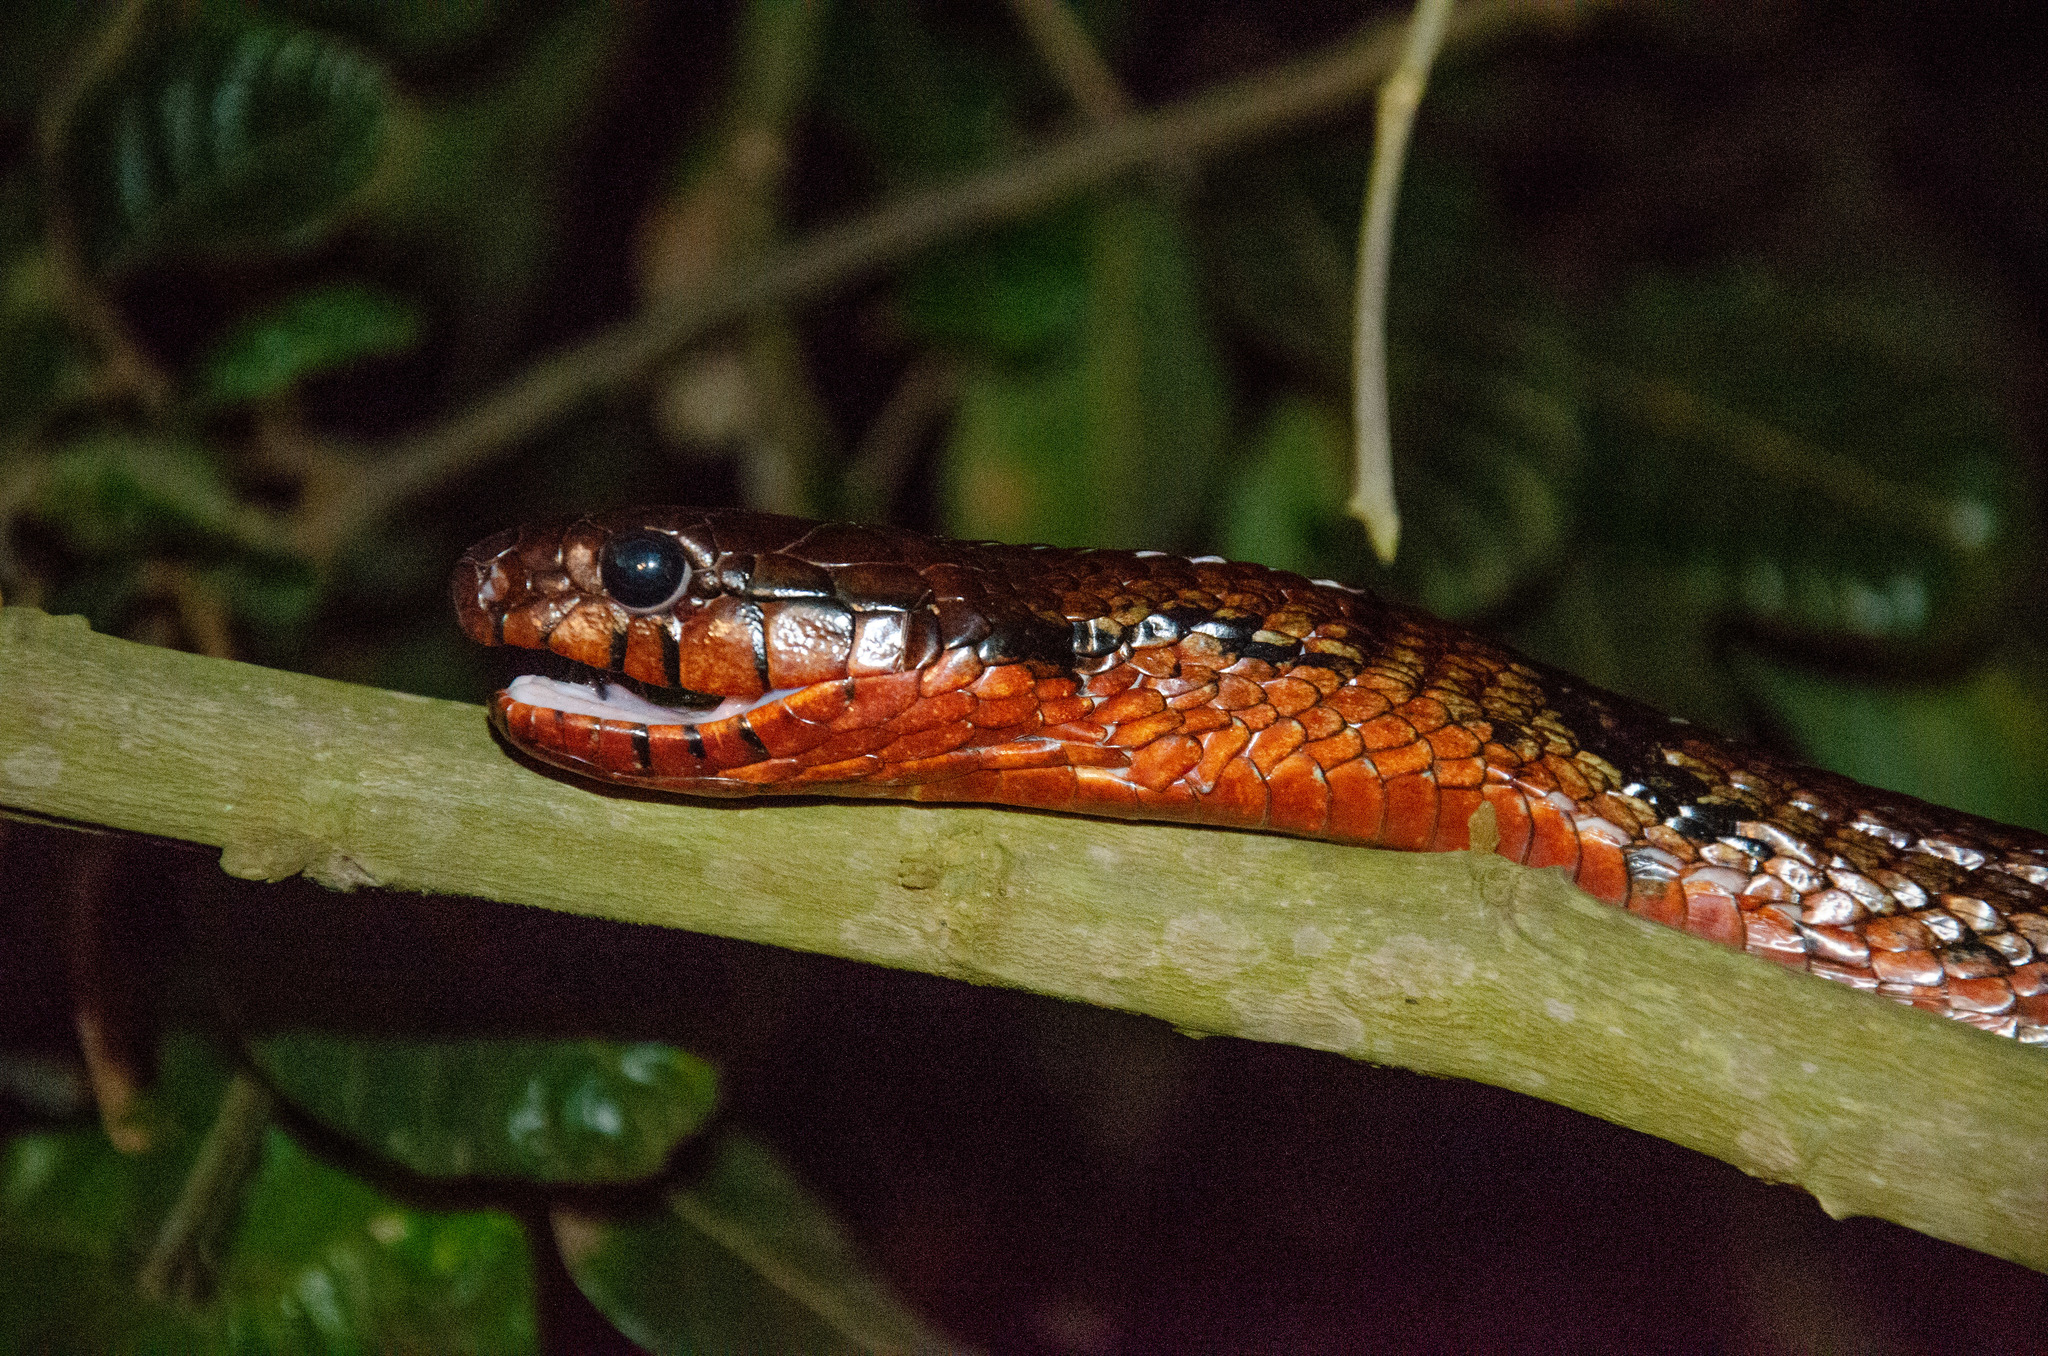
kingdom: Animalia
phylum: Chordata
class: Squamata
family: Colubridae
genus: Spilotes
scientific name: Spilotes sulphureus
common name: Amazon puffing snake
